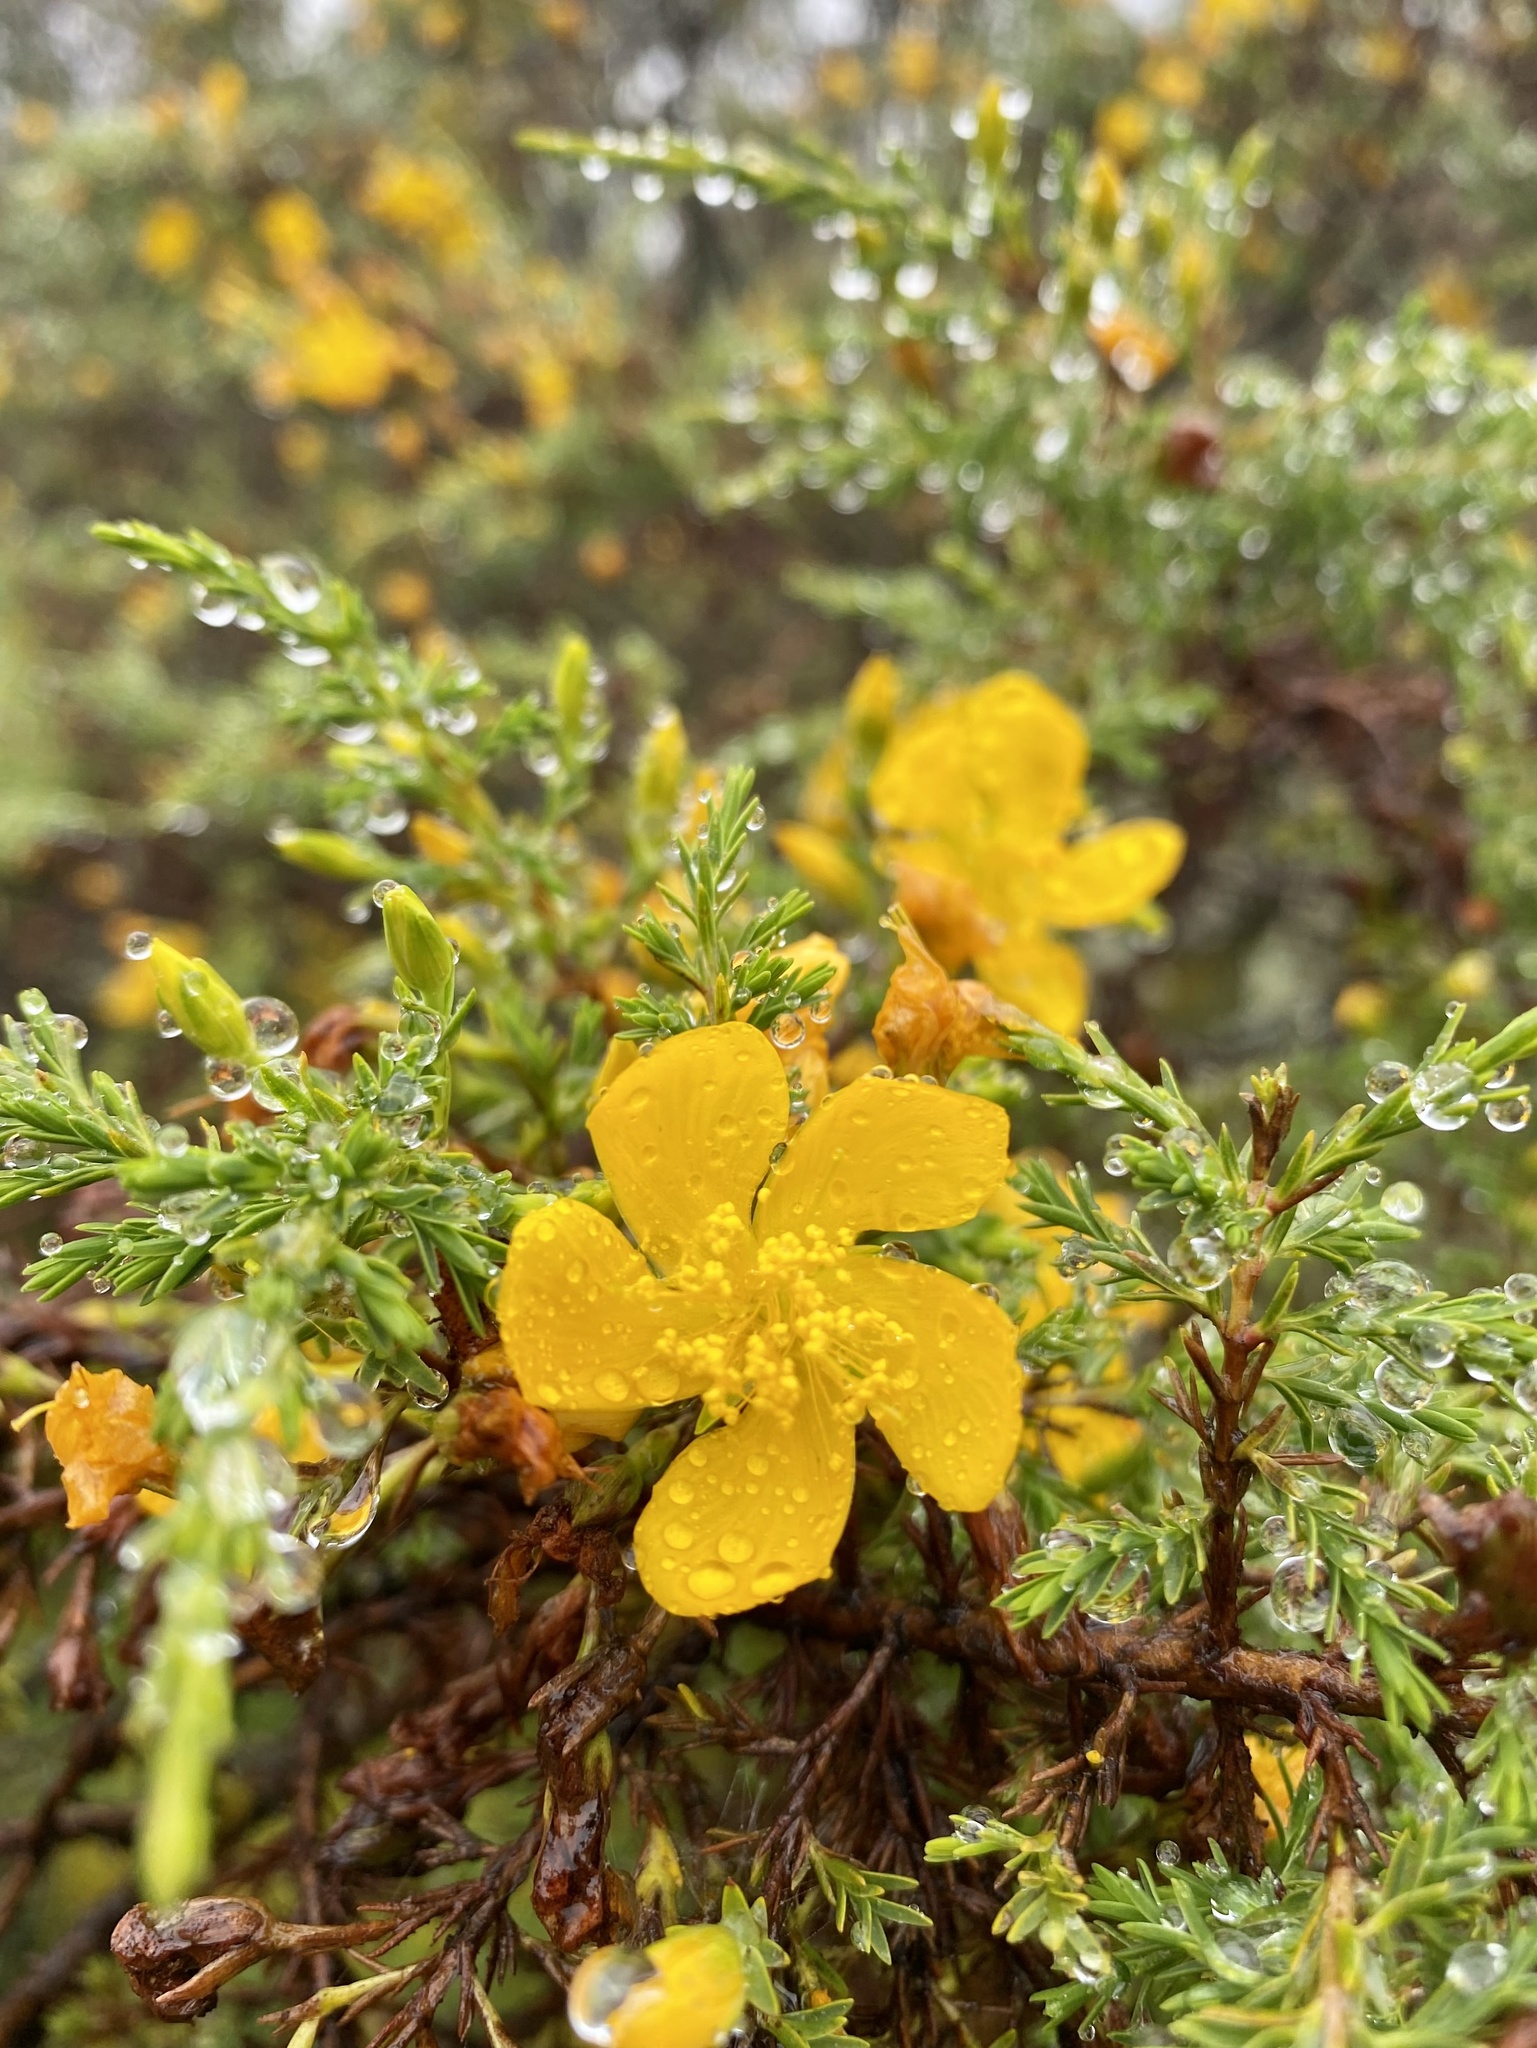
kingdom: Plantae
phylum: Tracheophyta
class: Magnoliopsida
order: Malpighiales
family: Hypericaceae
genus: Hypericum
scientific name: Hypericum laricifolium
